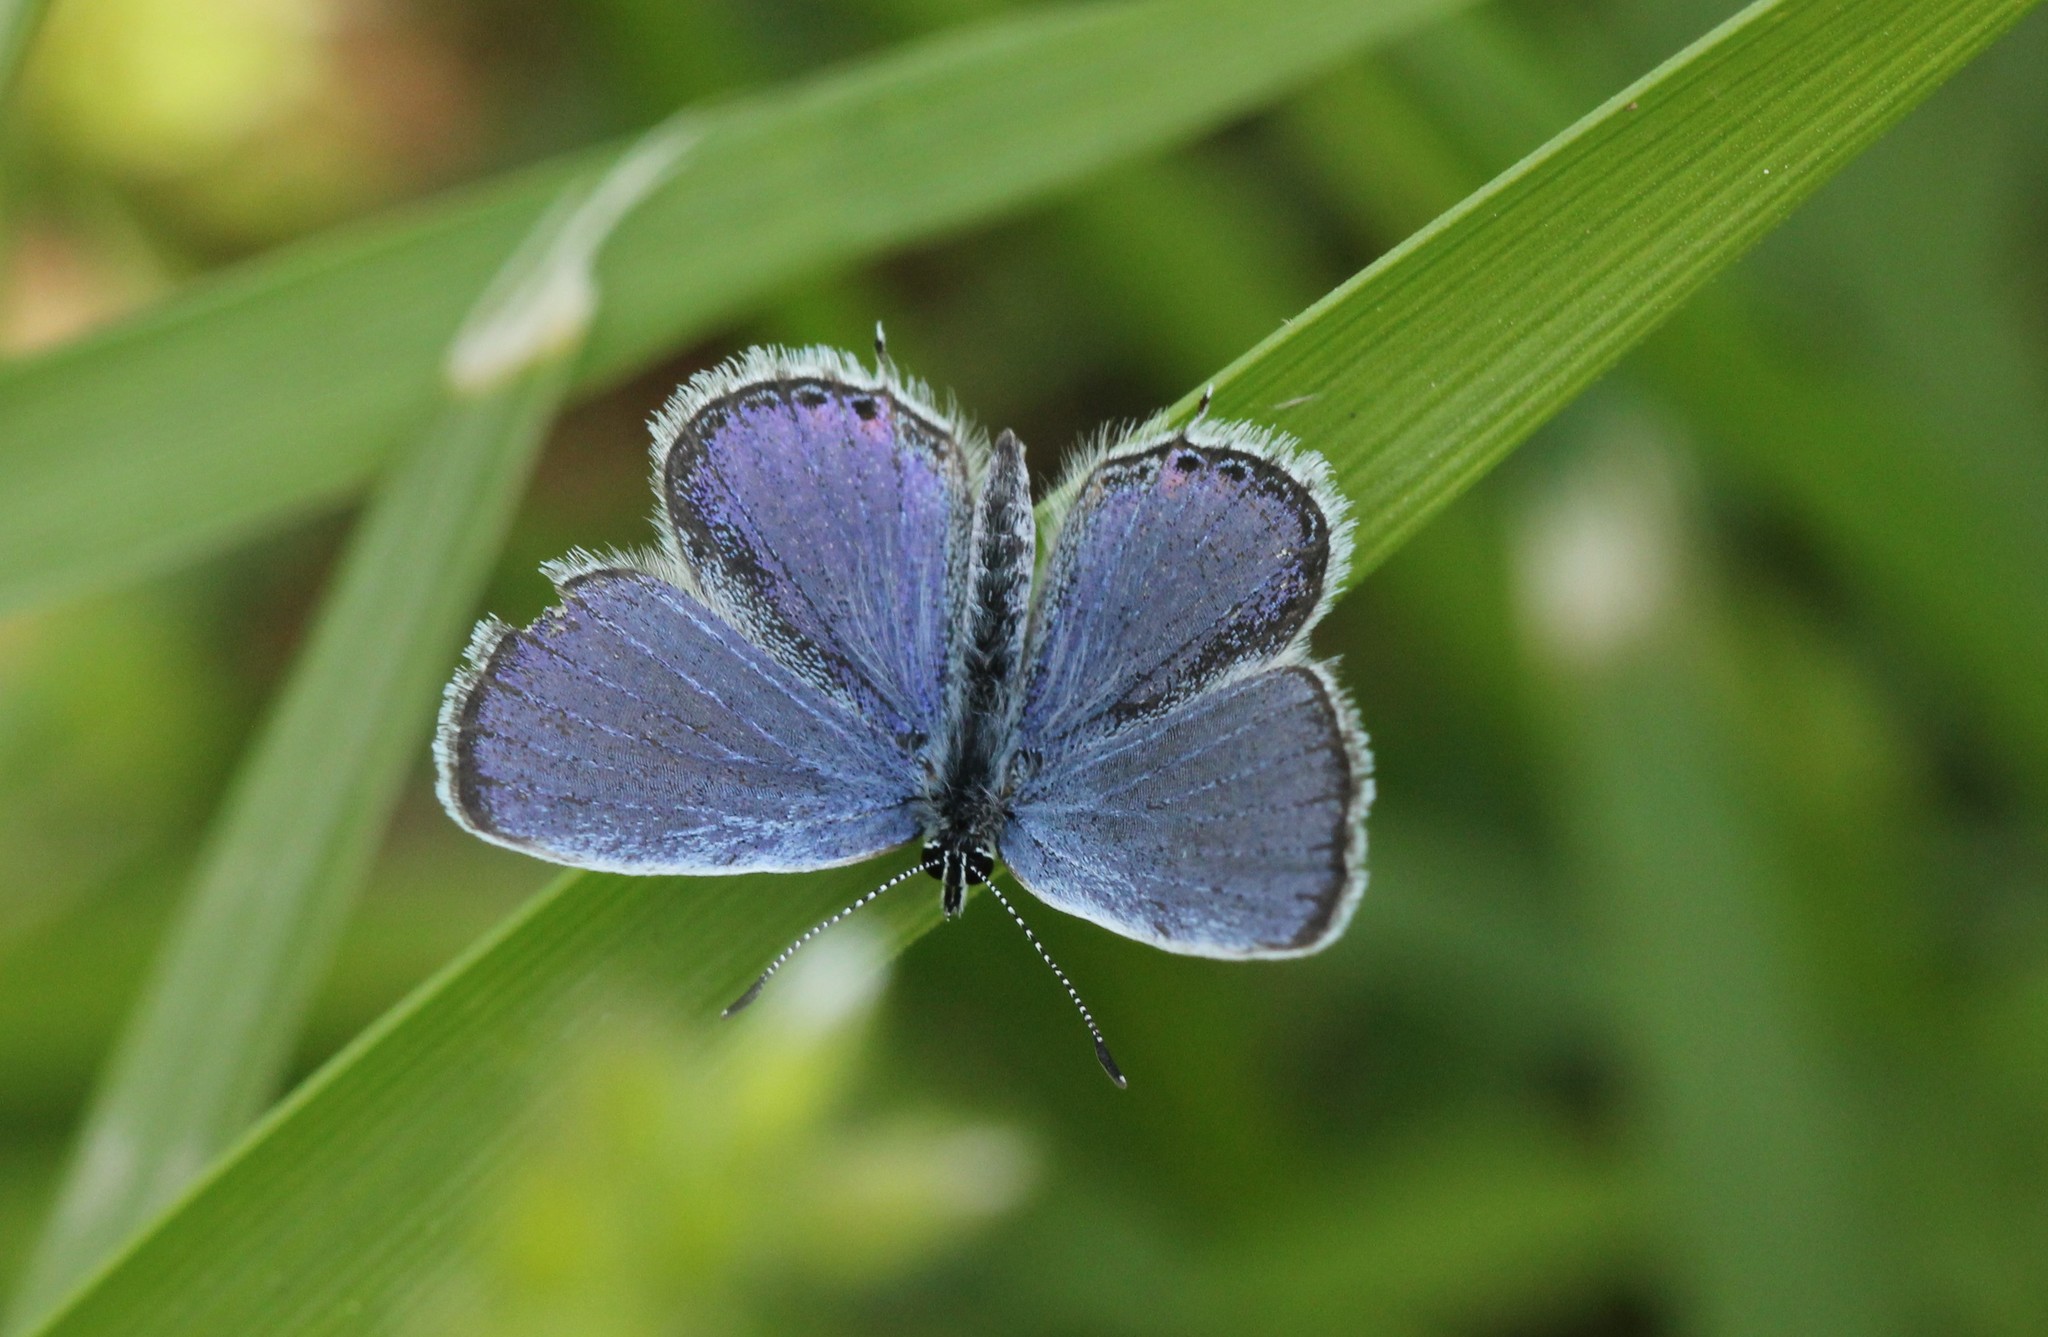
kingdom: Animalia
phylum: Arthropoda
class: Insecta
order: Lepidoptera
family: Lycaenidae
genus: Elkalyce
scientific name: Elkalyce comyntas
